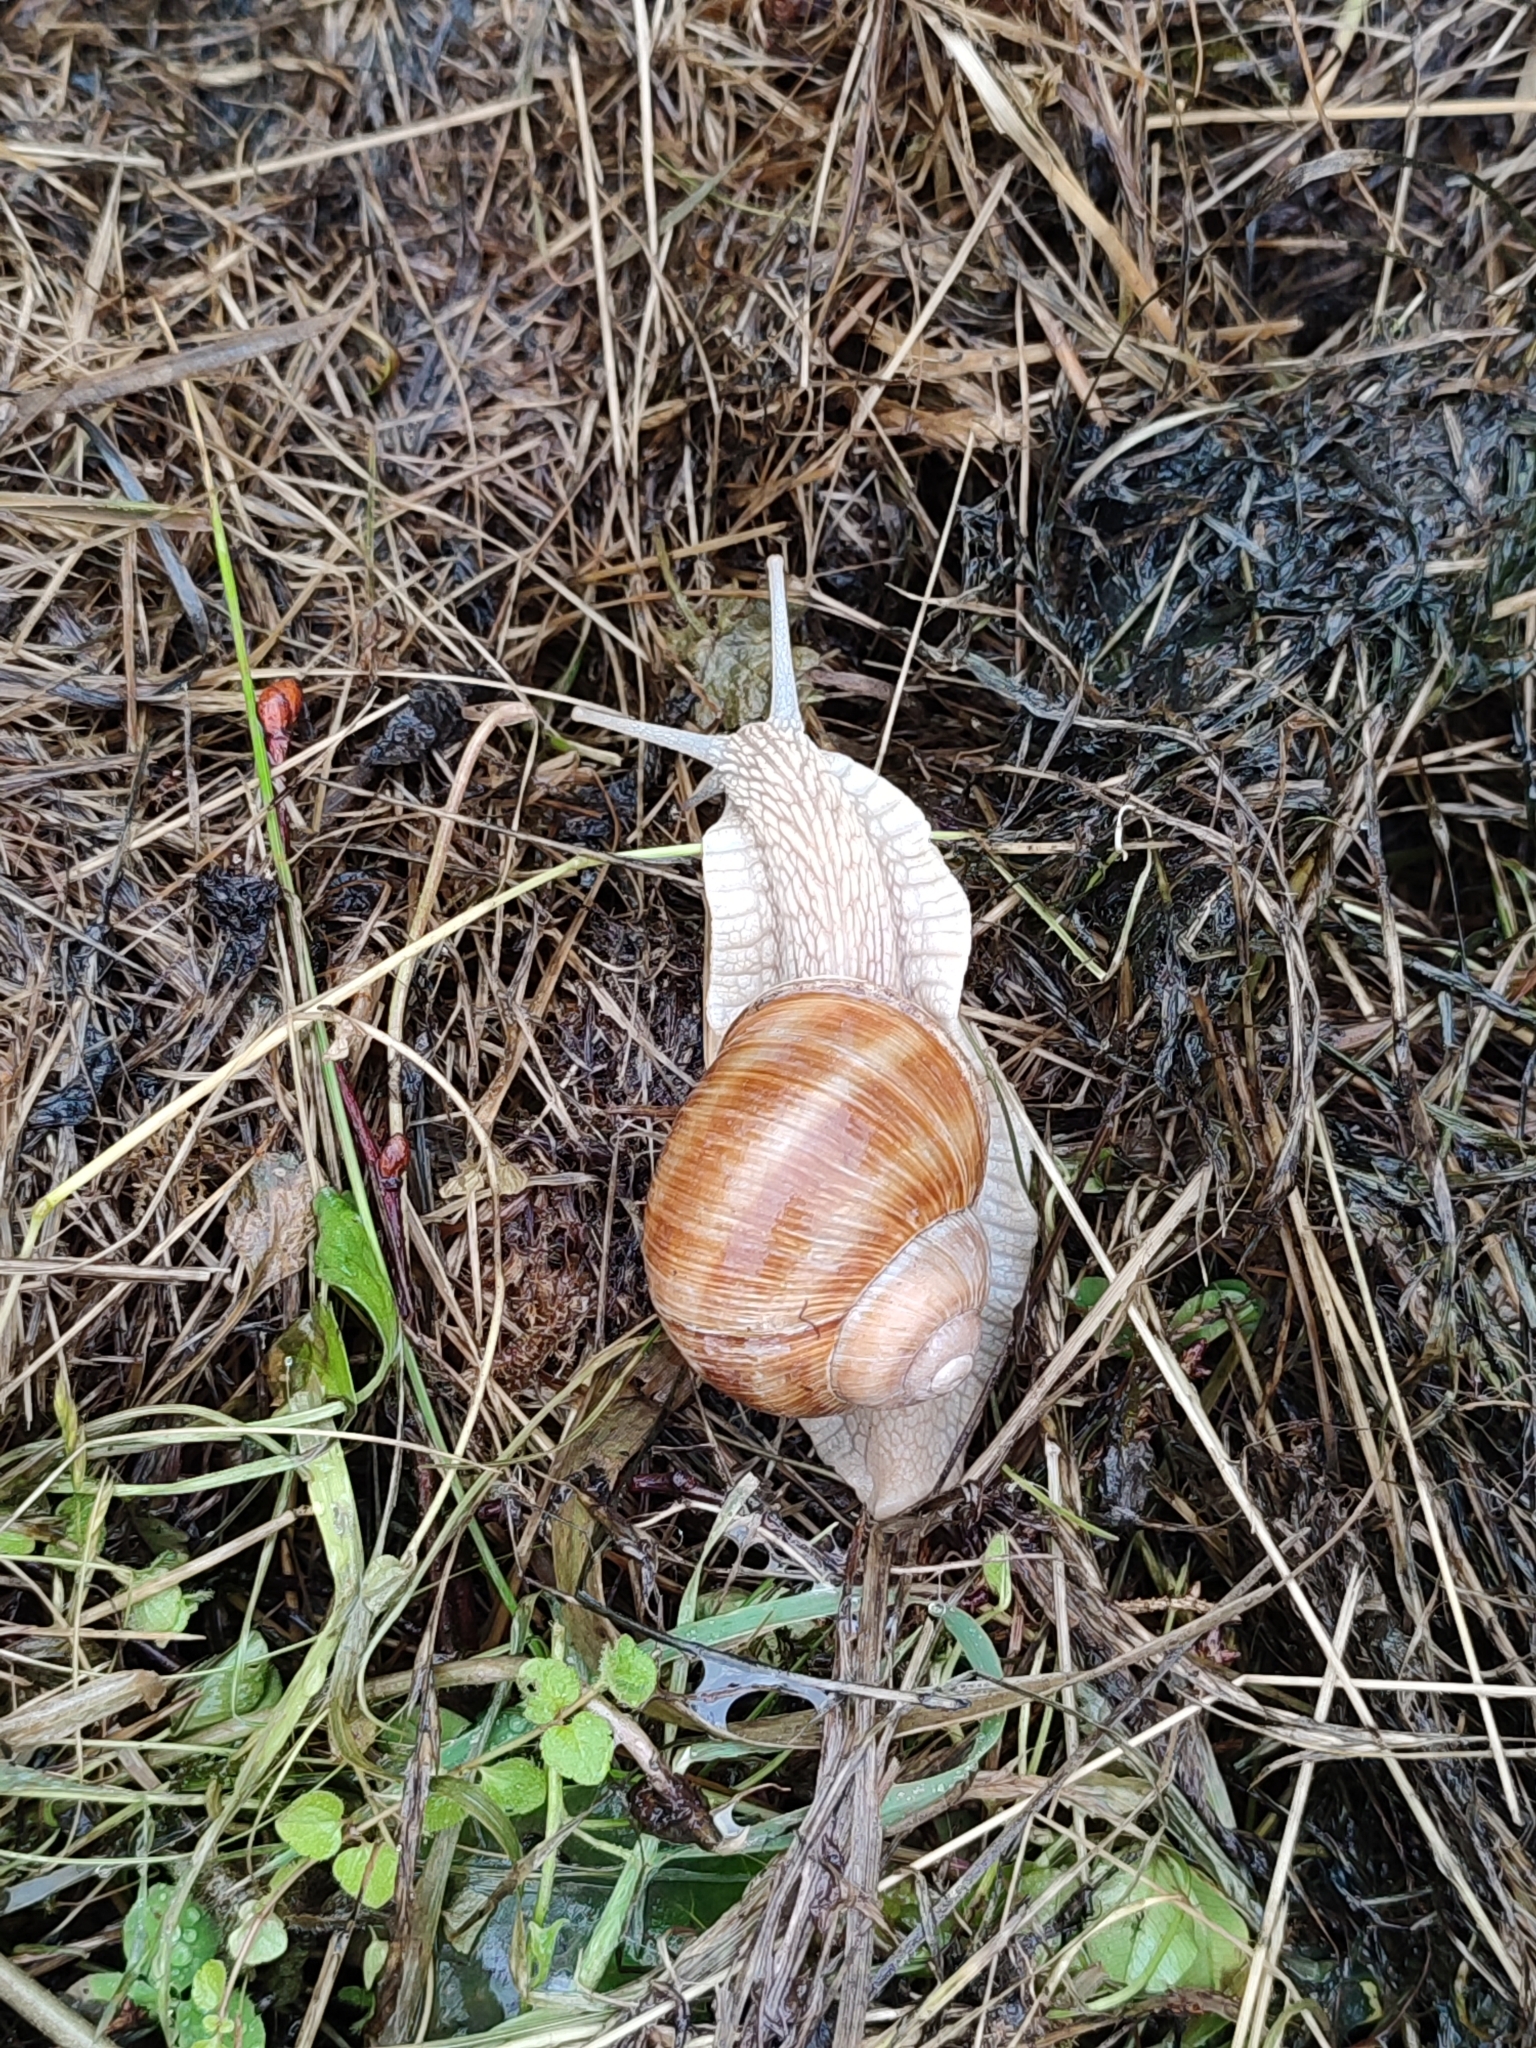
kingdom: Animalia
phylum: Mollusca
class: Gastropoda
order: Stylommatophora
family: Helicidae
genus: Helix
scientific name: Helix pomatia
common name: Roman snail
